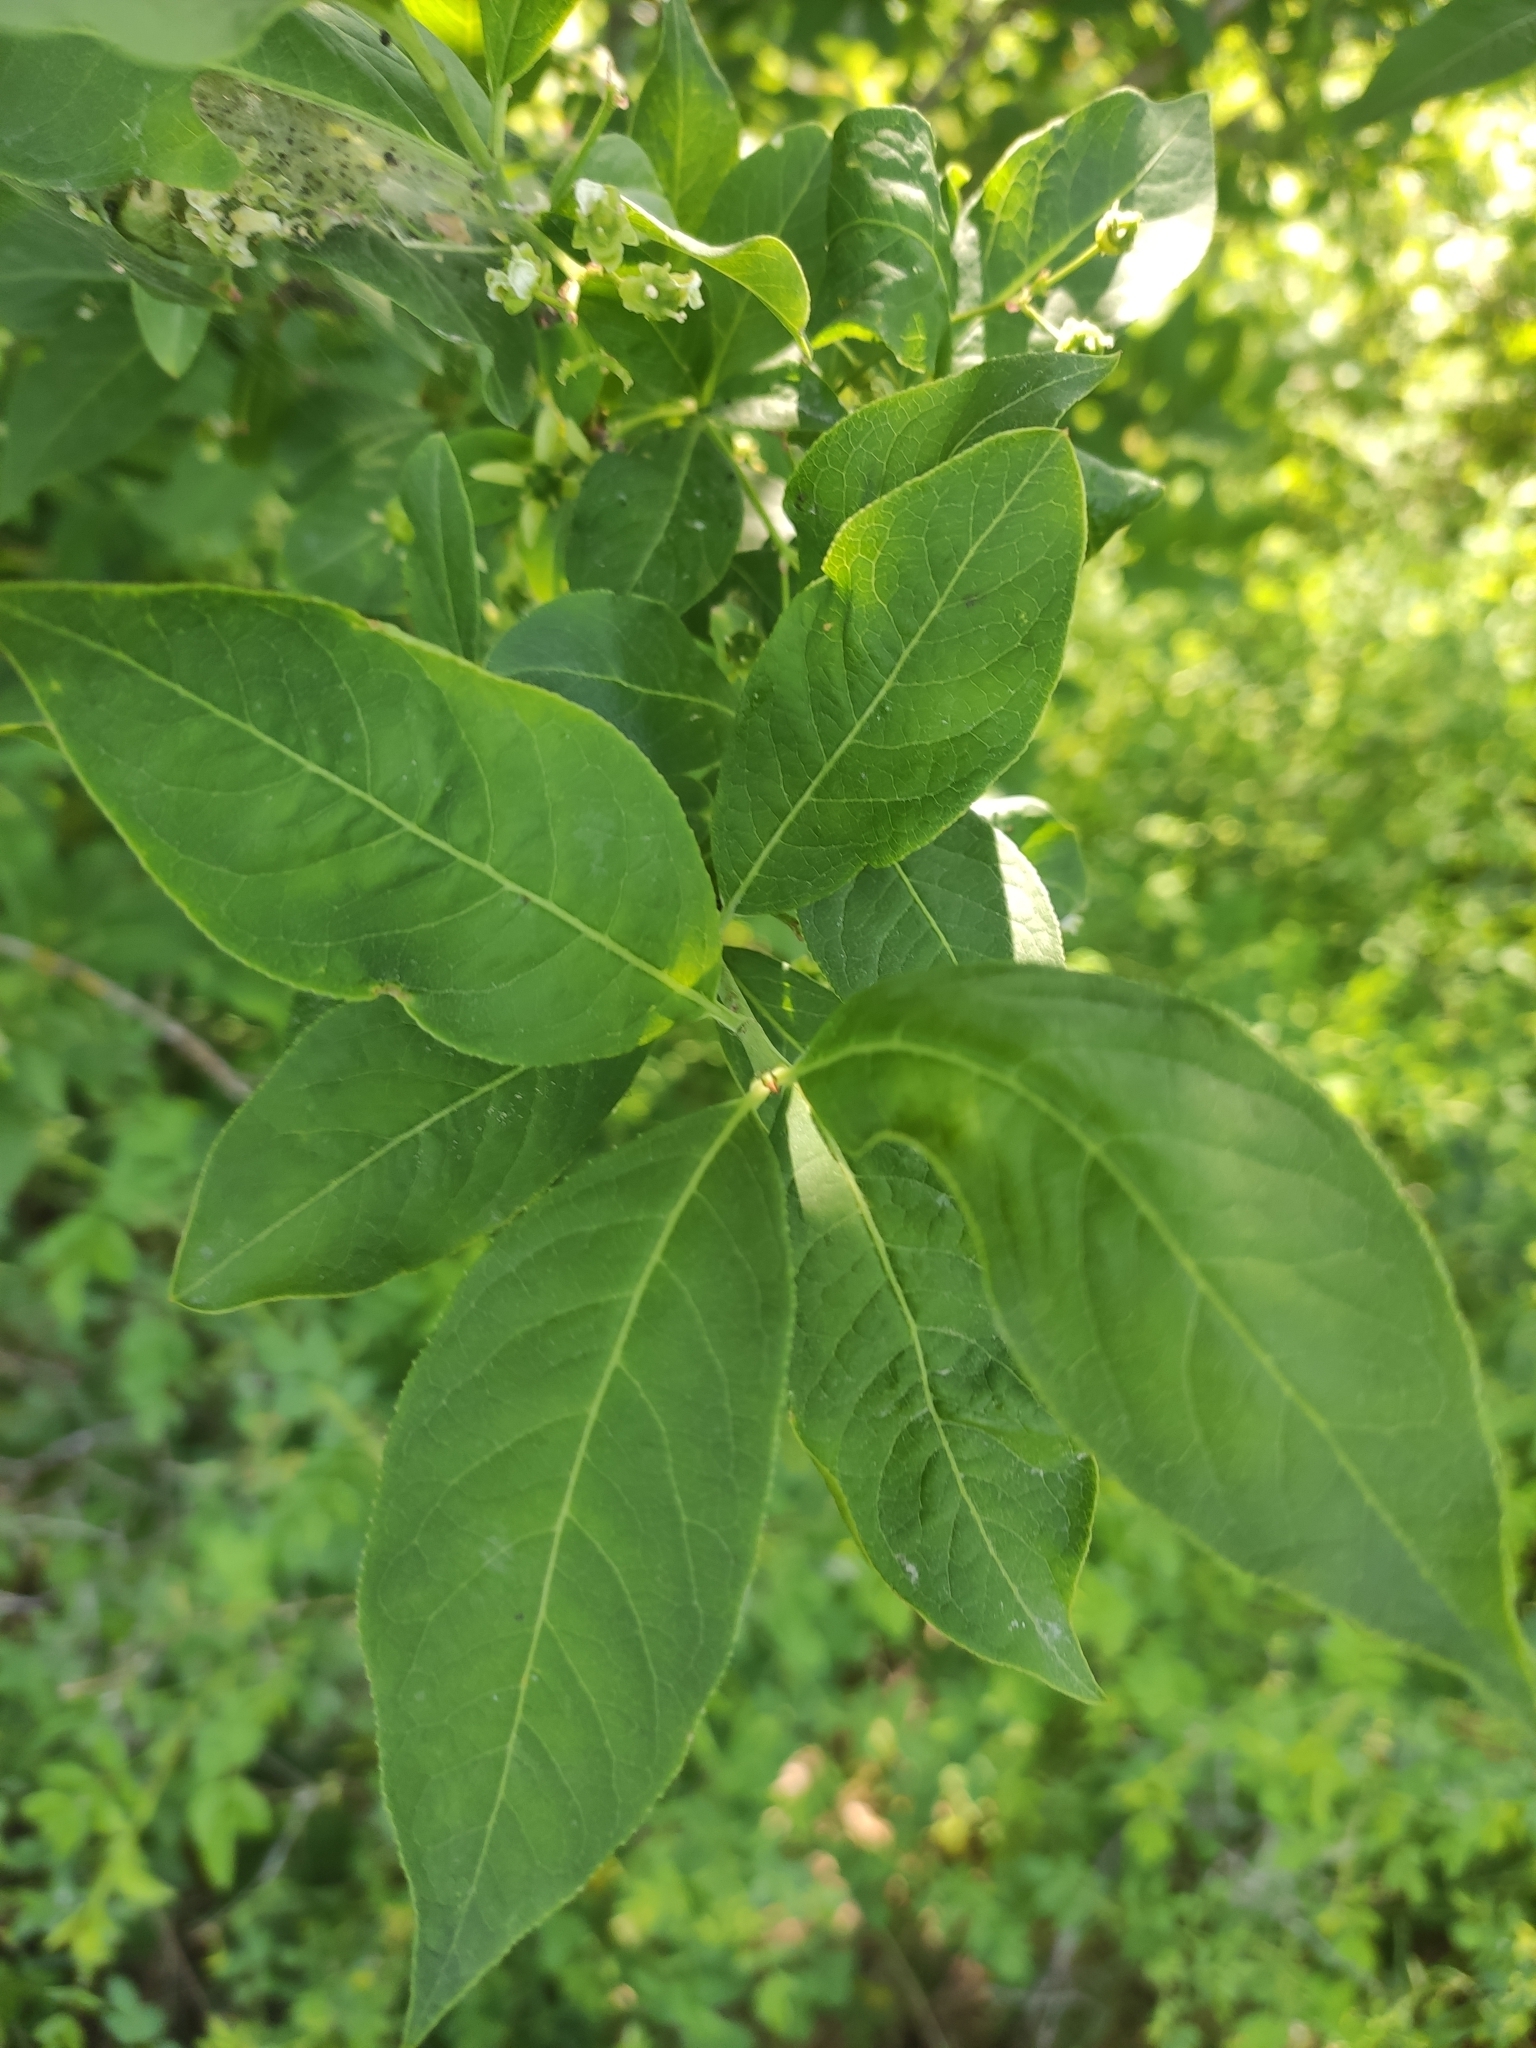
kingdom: Plantae
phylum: Tracheophyta
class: Magnoliopsida
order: Celastrales
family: Celastraceae
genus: Euonymus
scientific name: Euonymus europaeus
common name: Spindle
